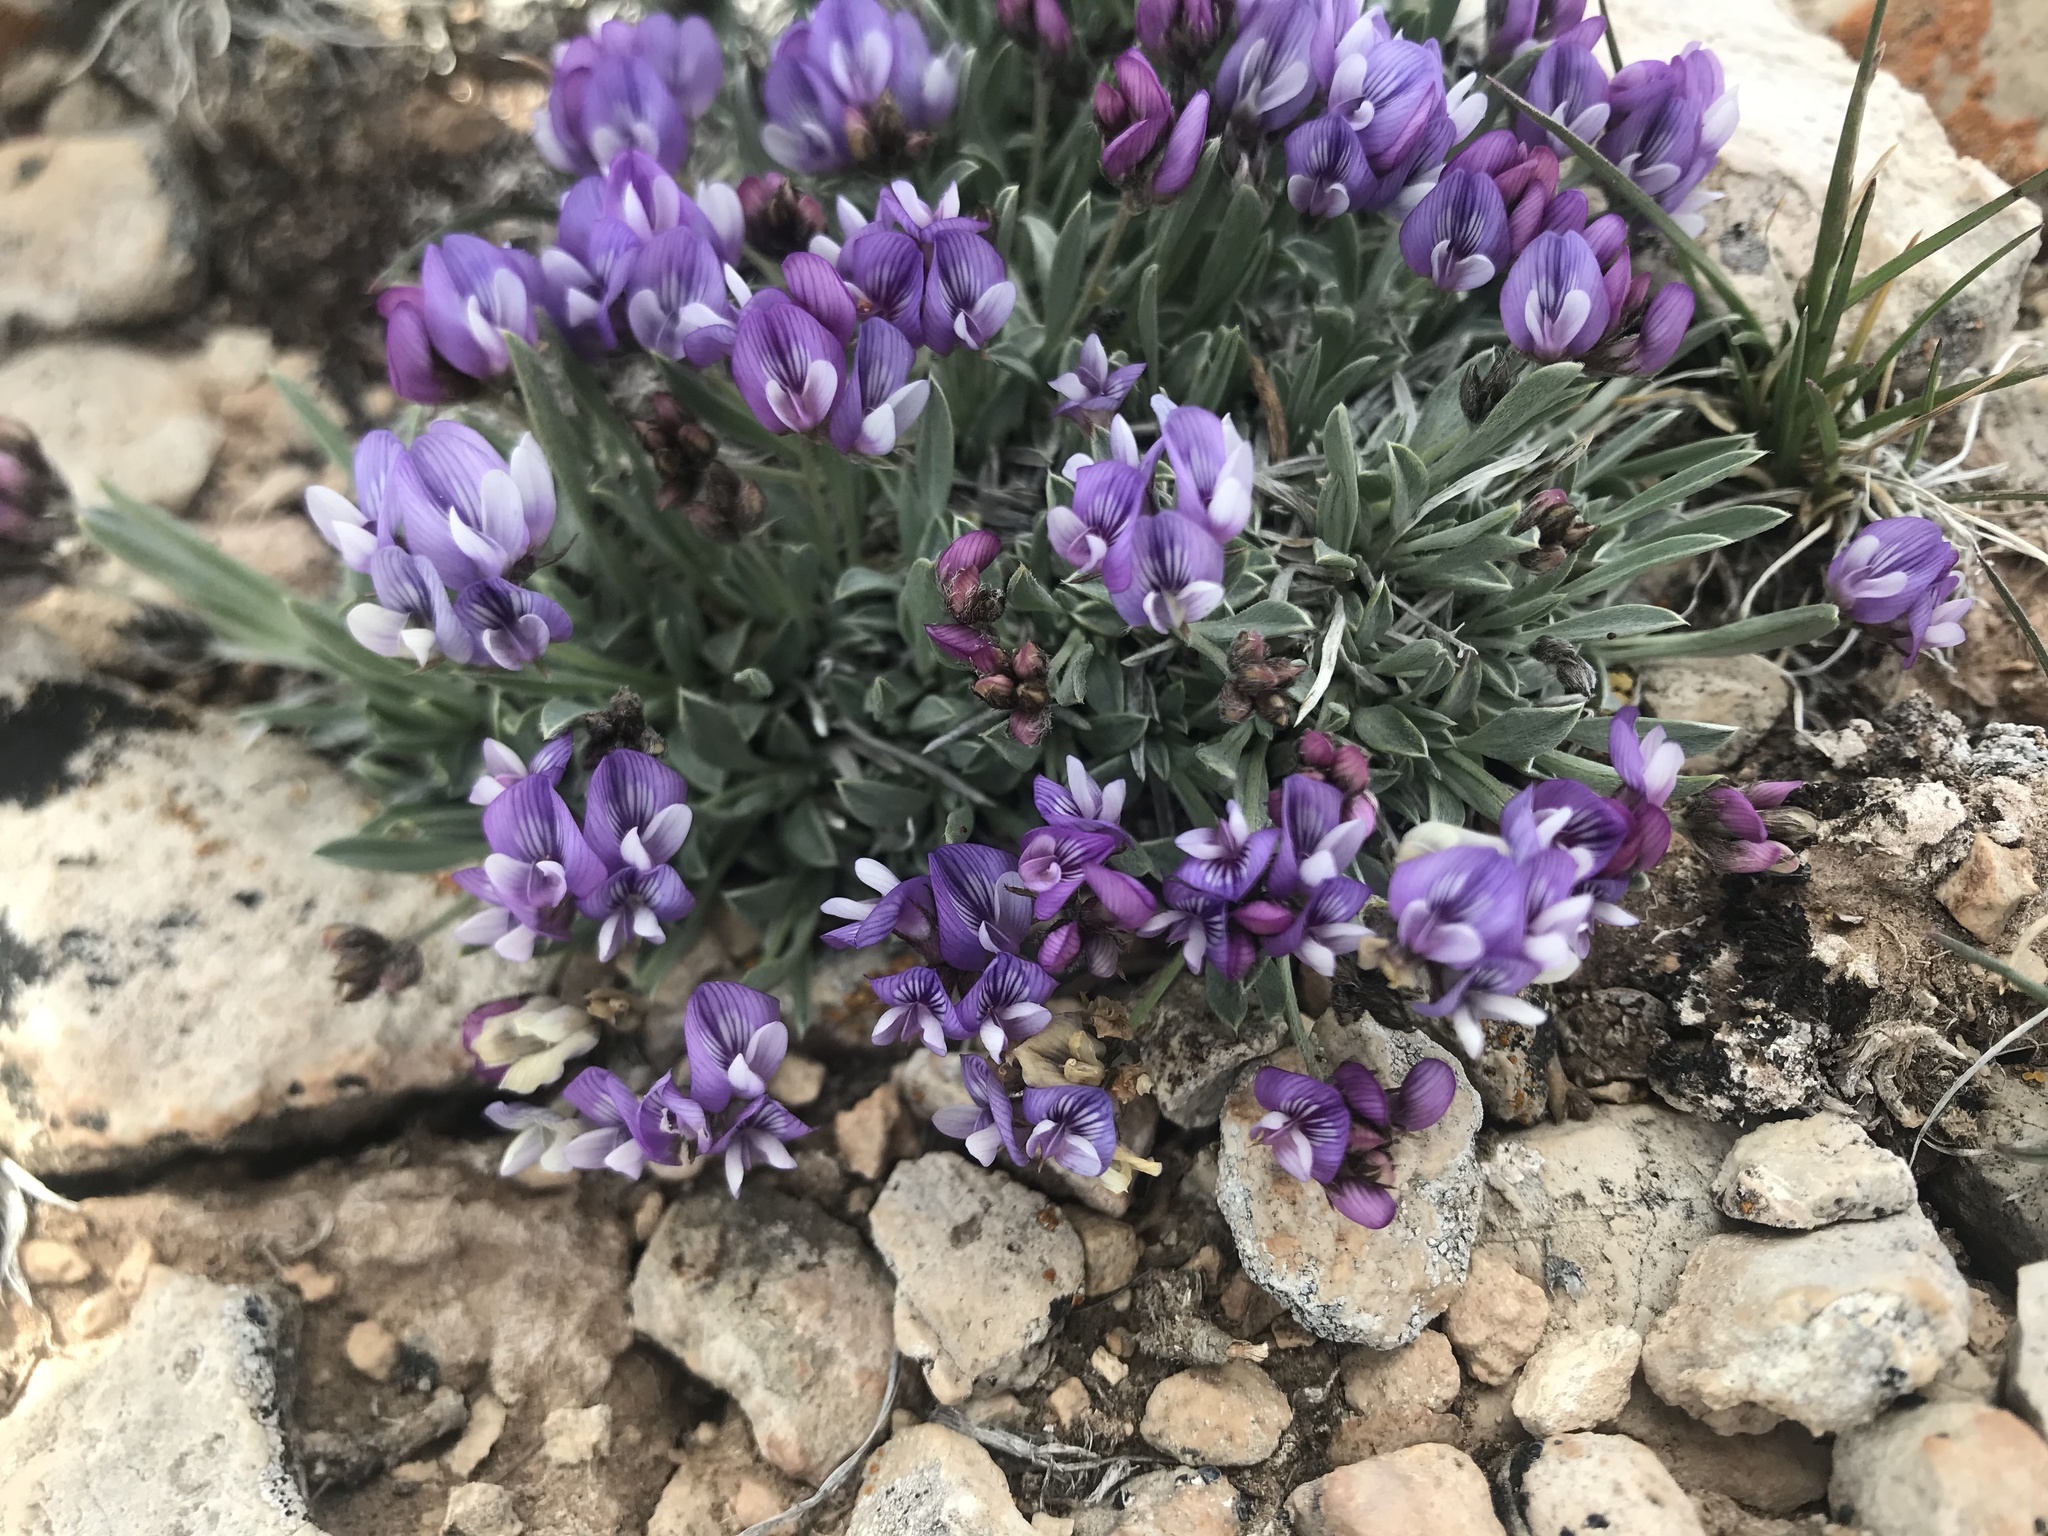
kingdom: Plantae
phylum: Tracheophyta
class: Magnoliopsida
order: Fabales
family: Fabaceae
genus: Astragalus
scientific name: Astragalus spatulatus
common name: Draba milk-vetch
